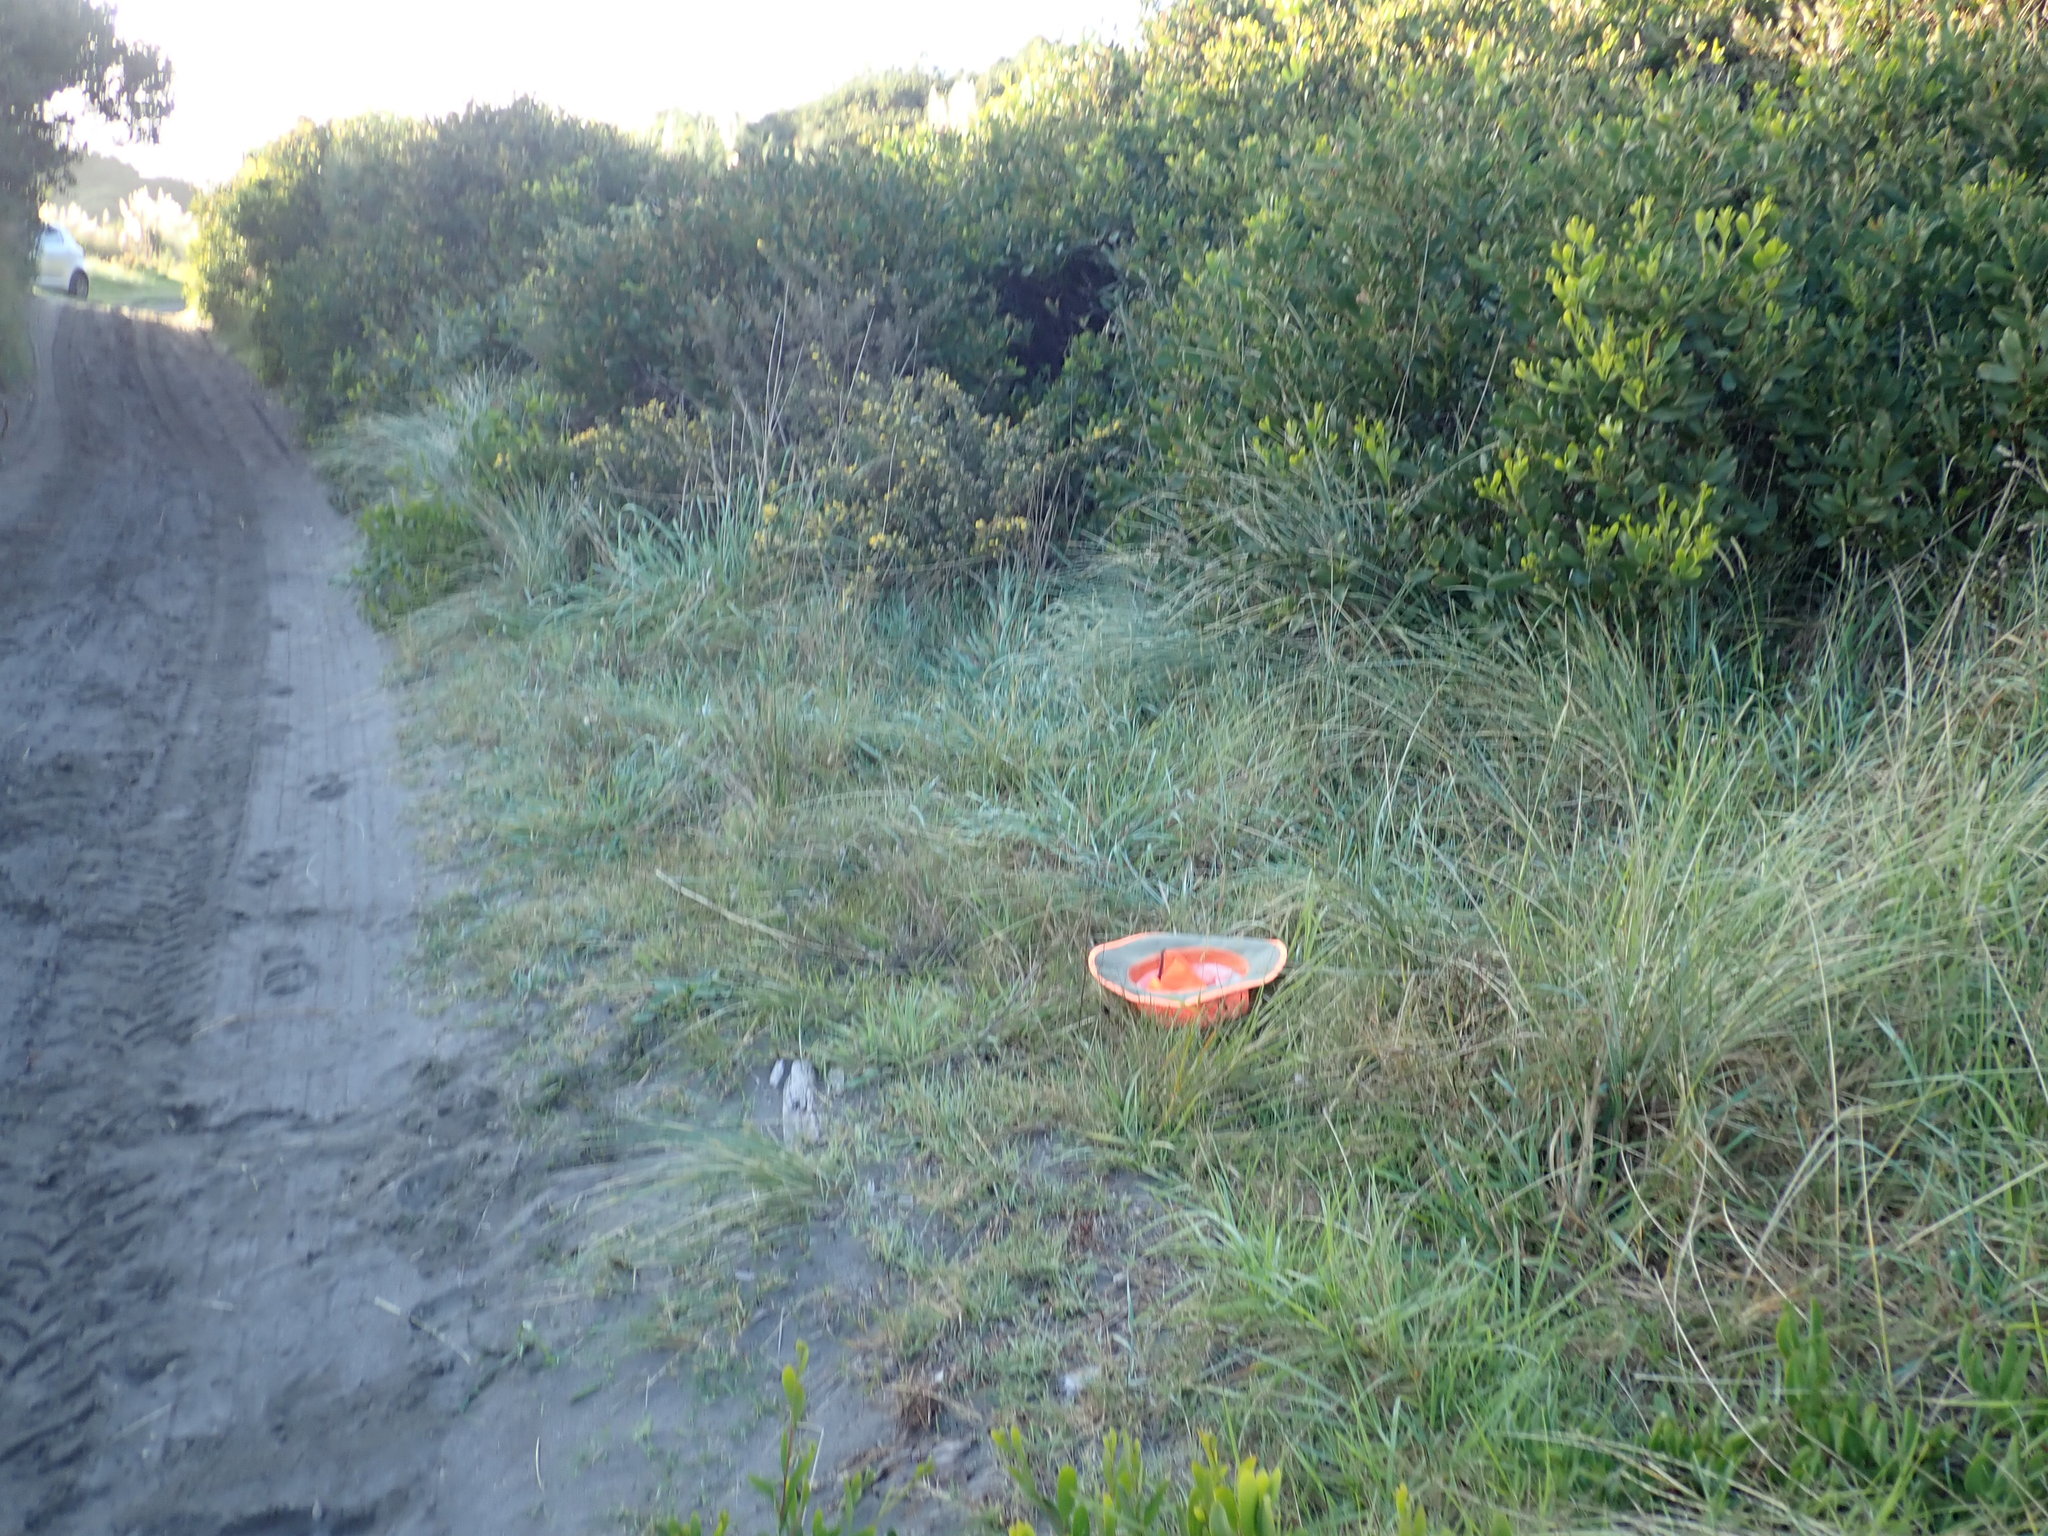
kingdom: Plantae
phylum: Tracheophyta
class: Magnoliopsida
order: Caryophyllales
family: Polygonaceae
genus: Muehlenbeckia
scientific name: Muehlenbeckia complexa
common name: Wireplant
